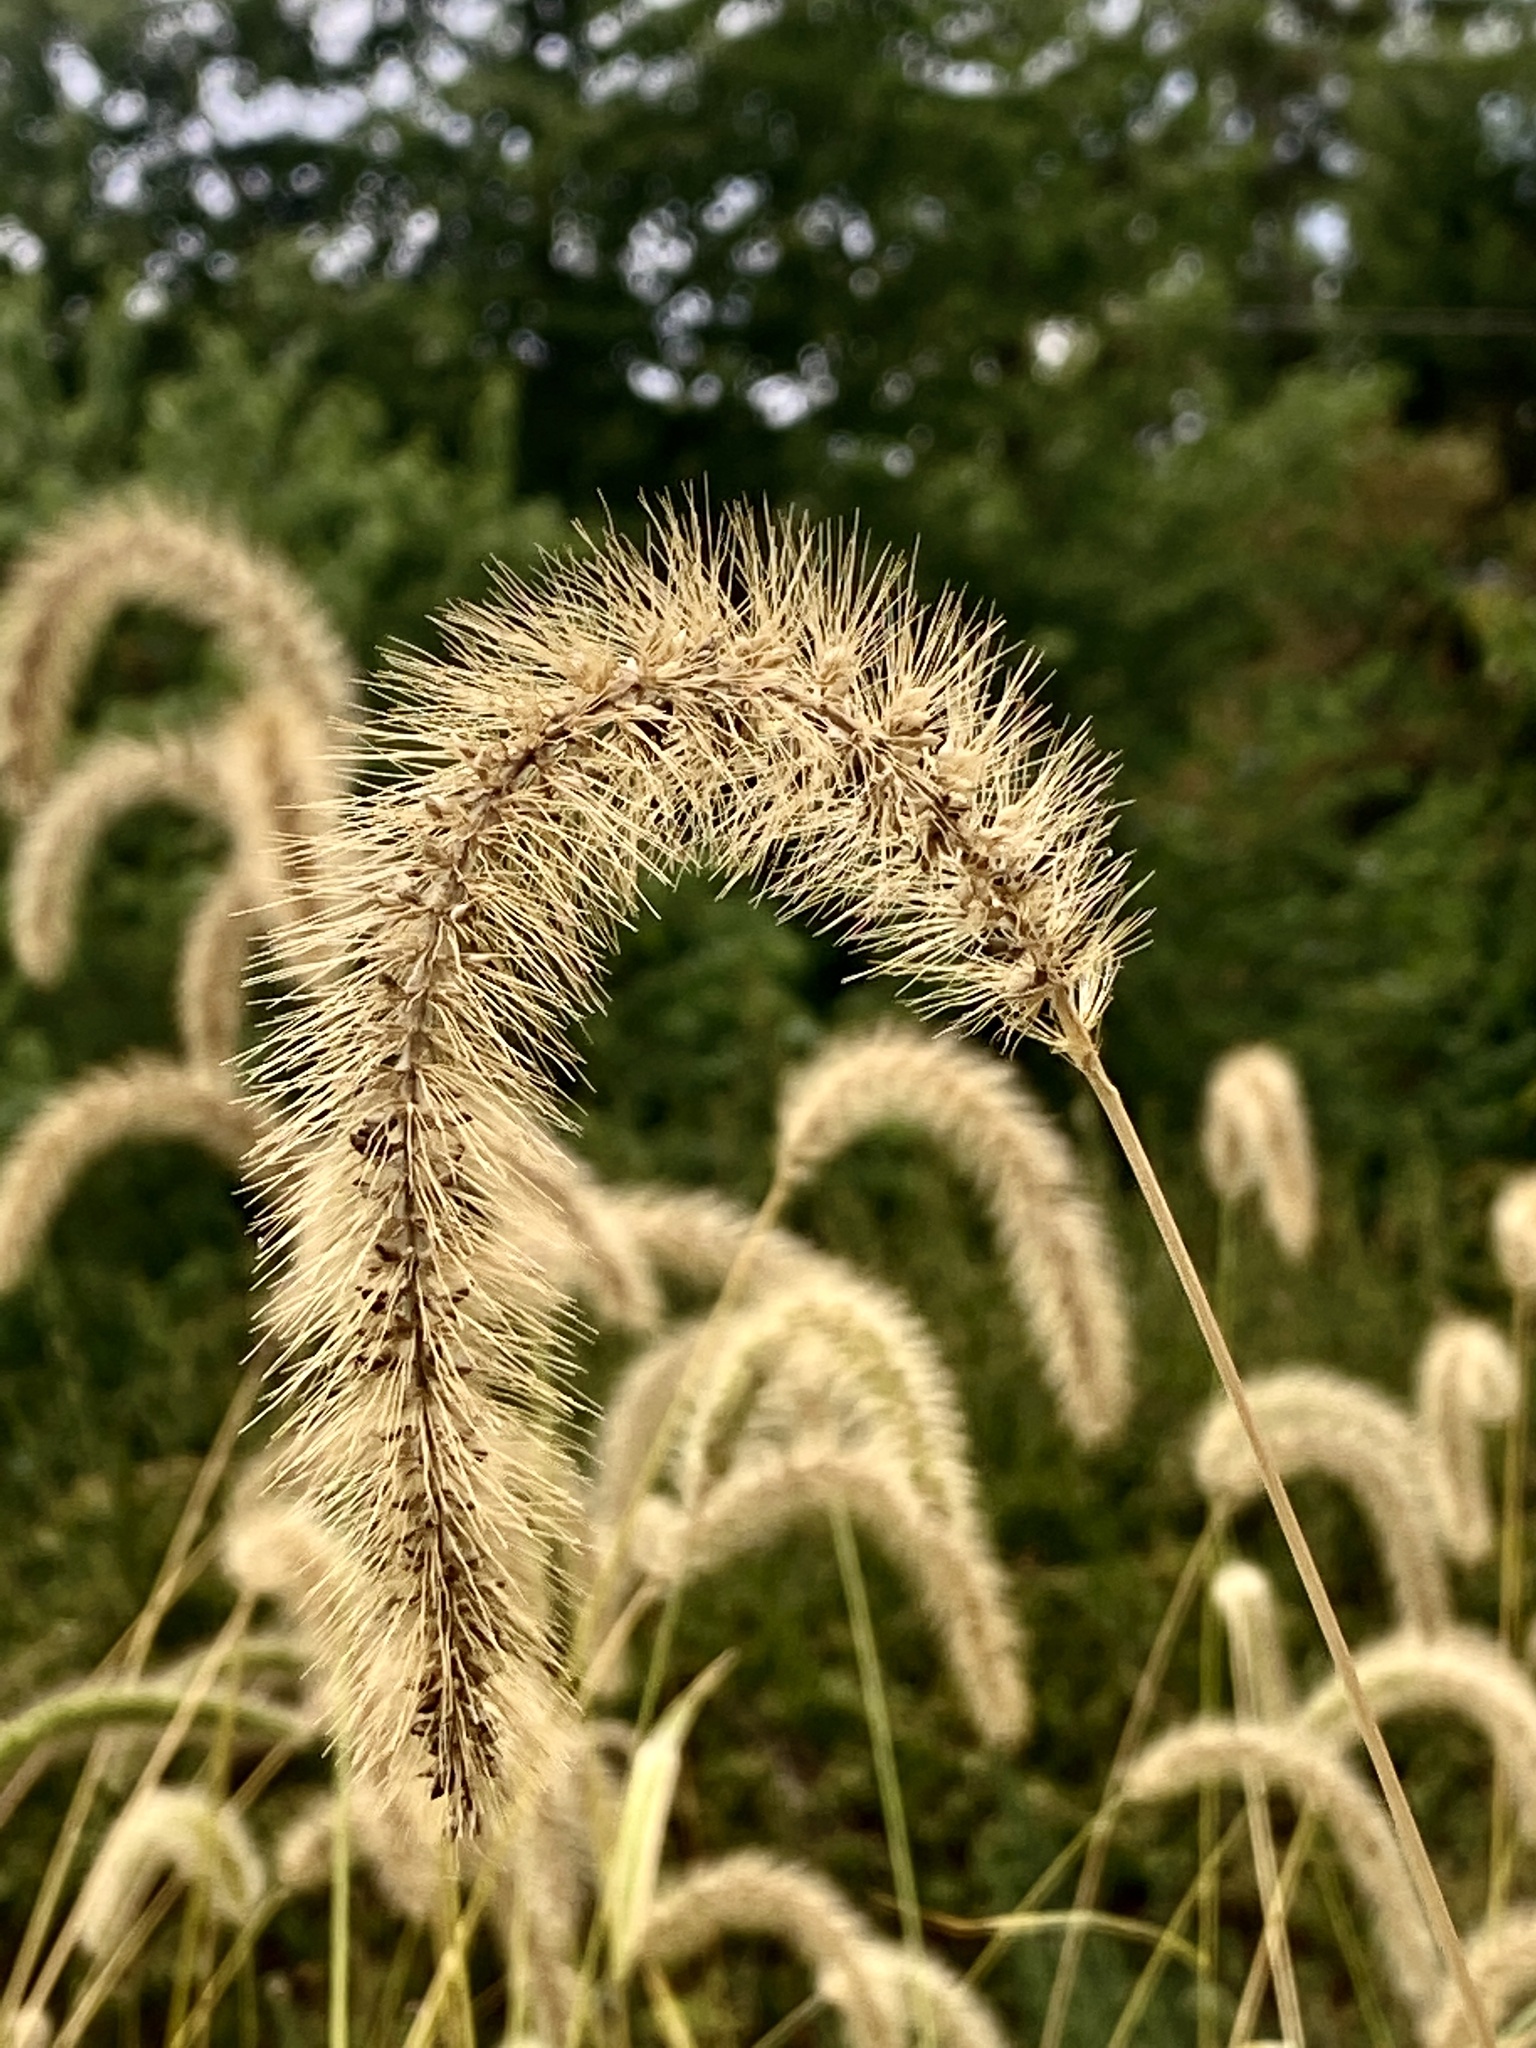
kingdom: Plantae
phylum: Tracheophyta
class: Liliopsida
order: Poales
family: Poaceae
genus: Setaria
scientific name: Setaria faberi
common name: Nodding bristle-grass
